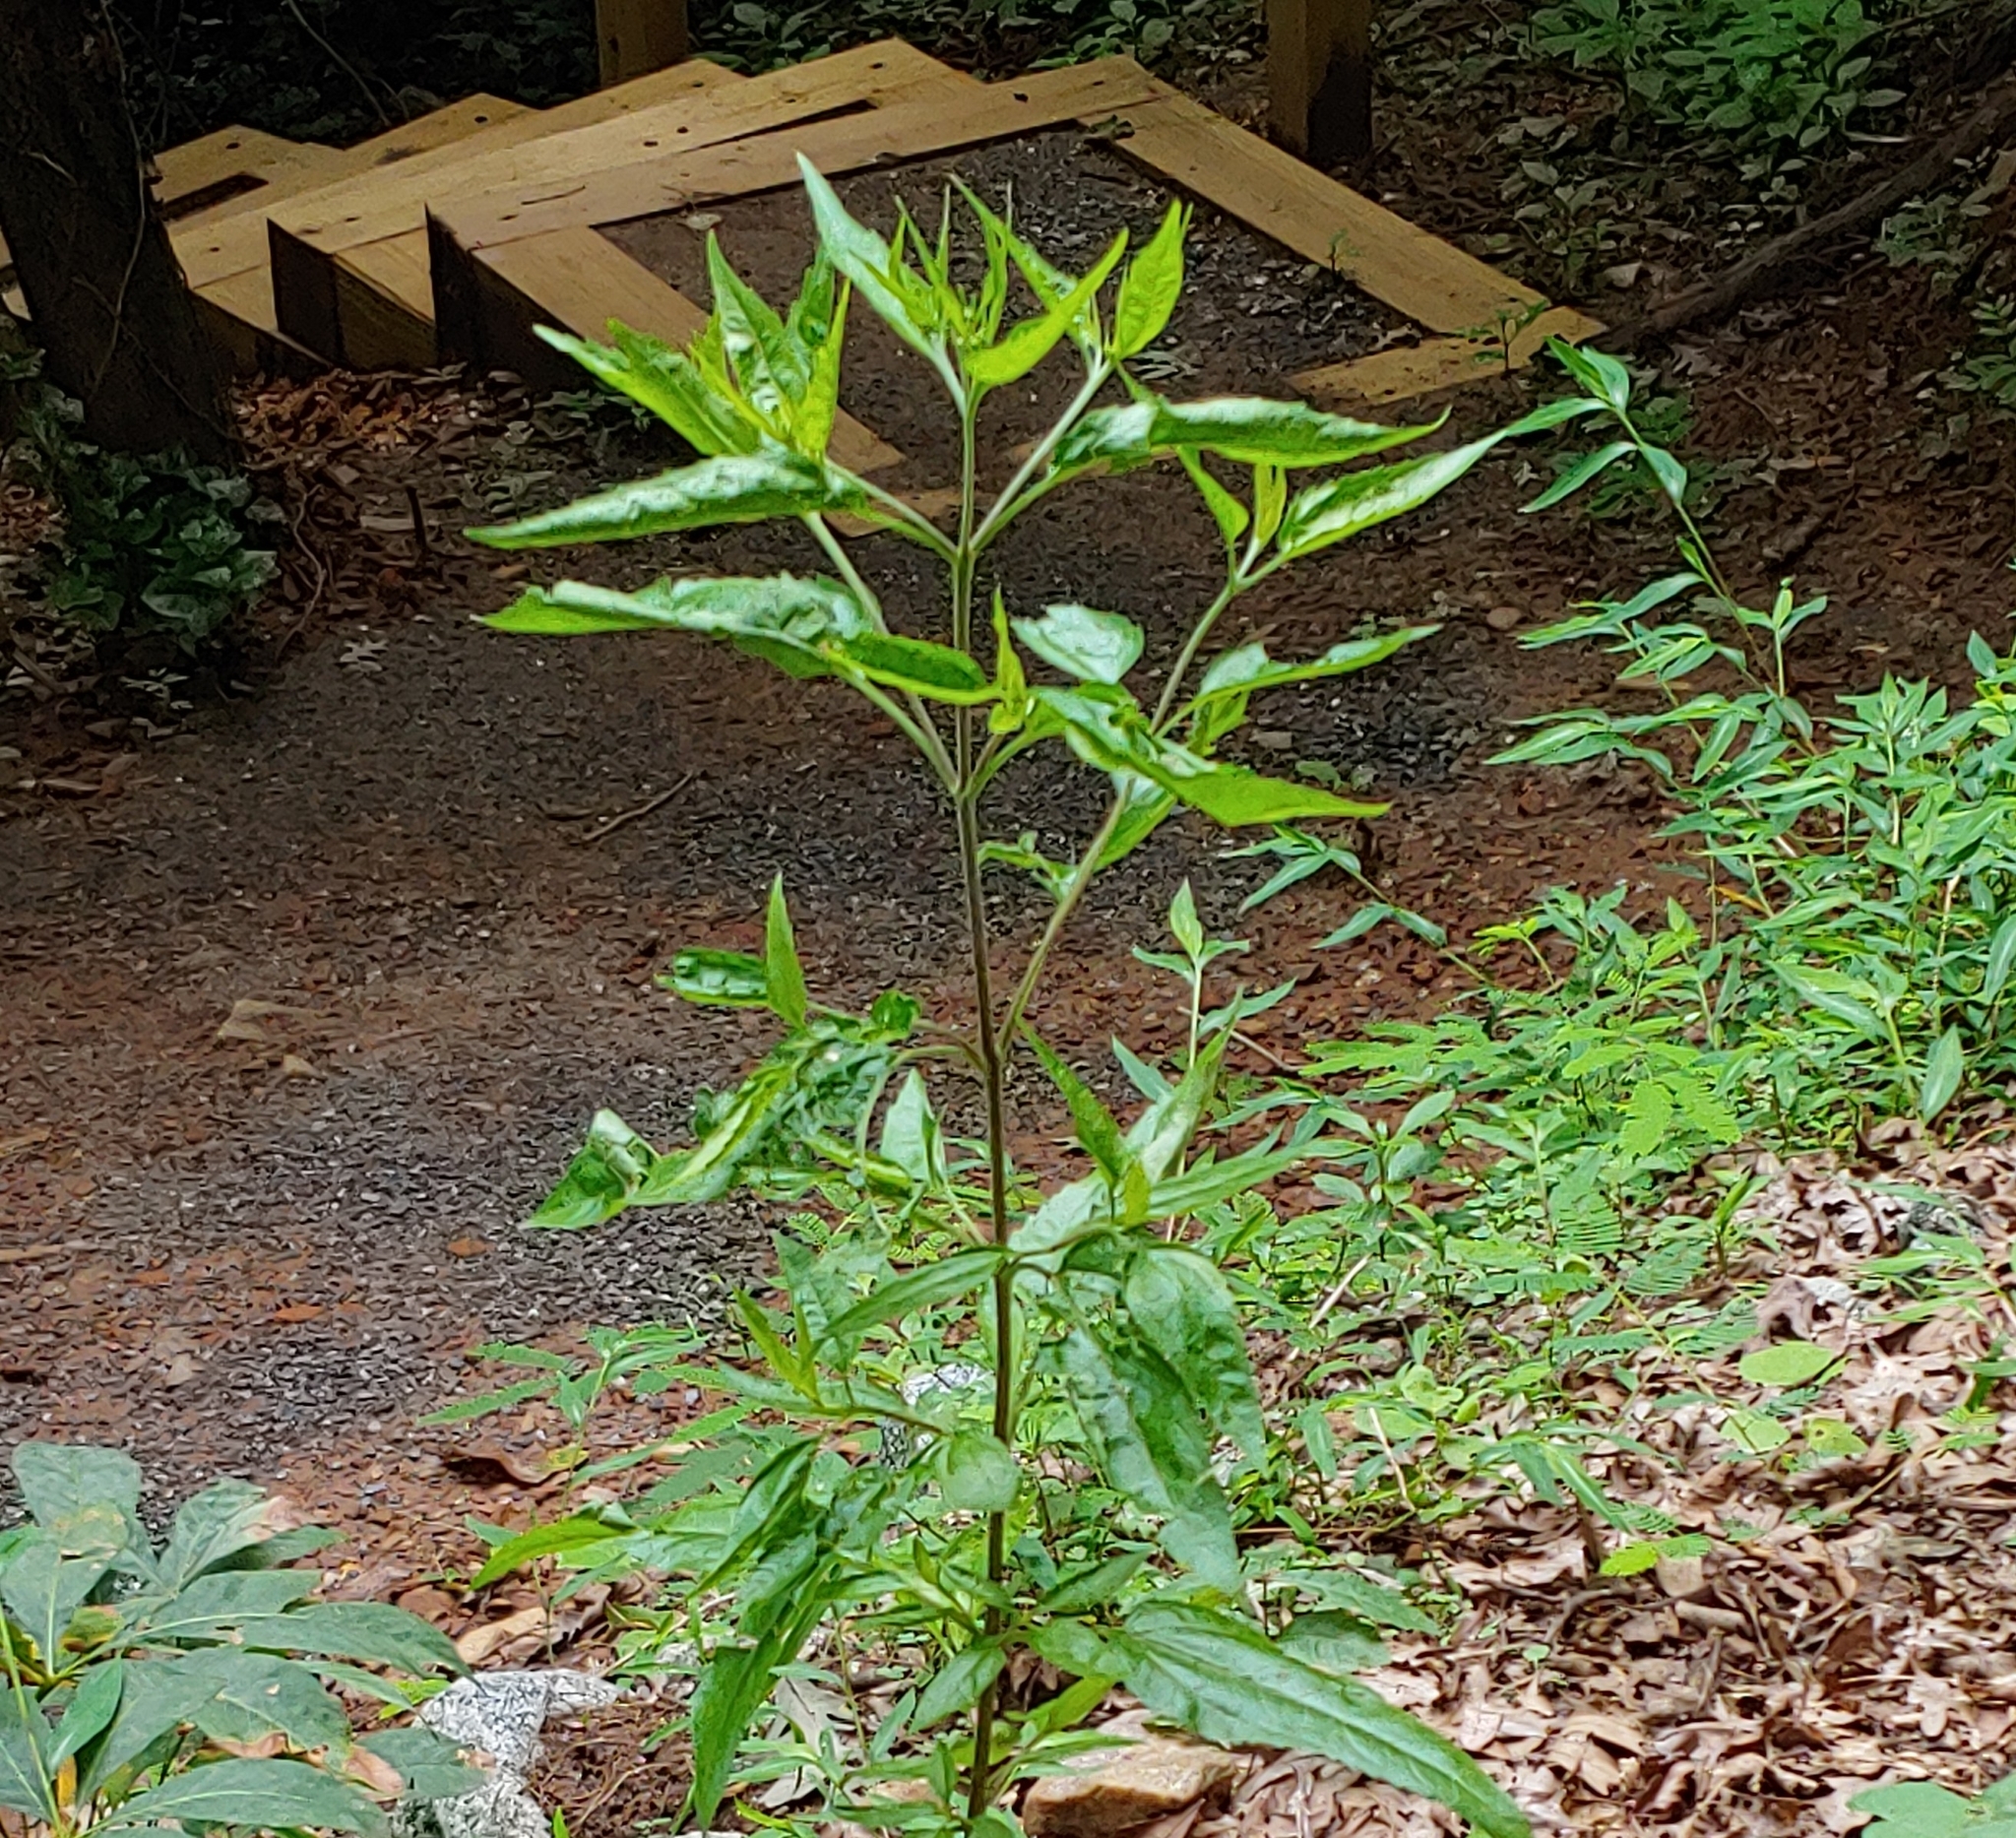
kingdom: Plantae
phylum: Tracheophyta
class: Magnoliopsida
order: Asterales
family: Asteraceae
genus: Eupatorium
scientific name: Eupatorium serotinum
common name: Late boneset
